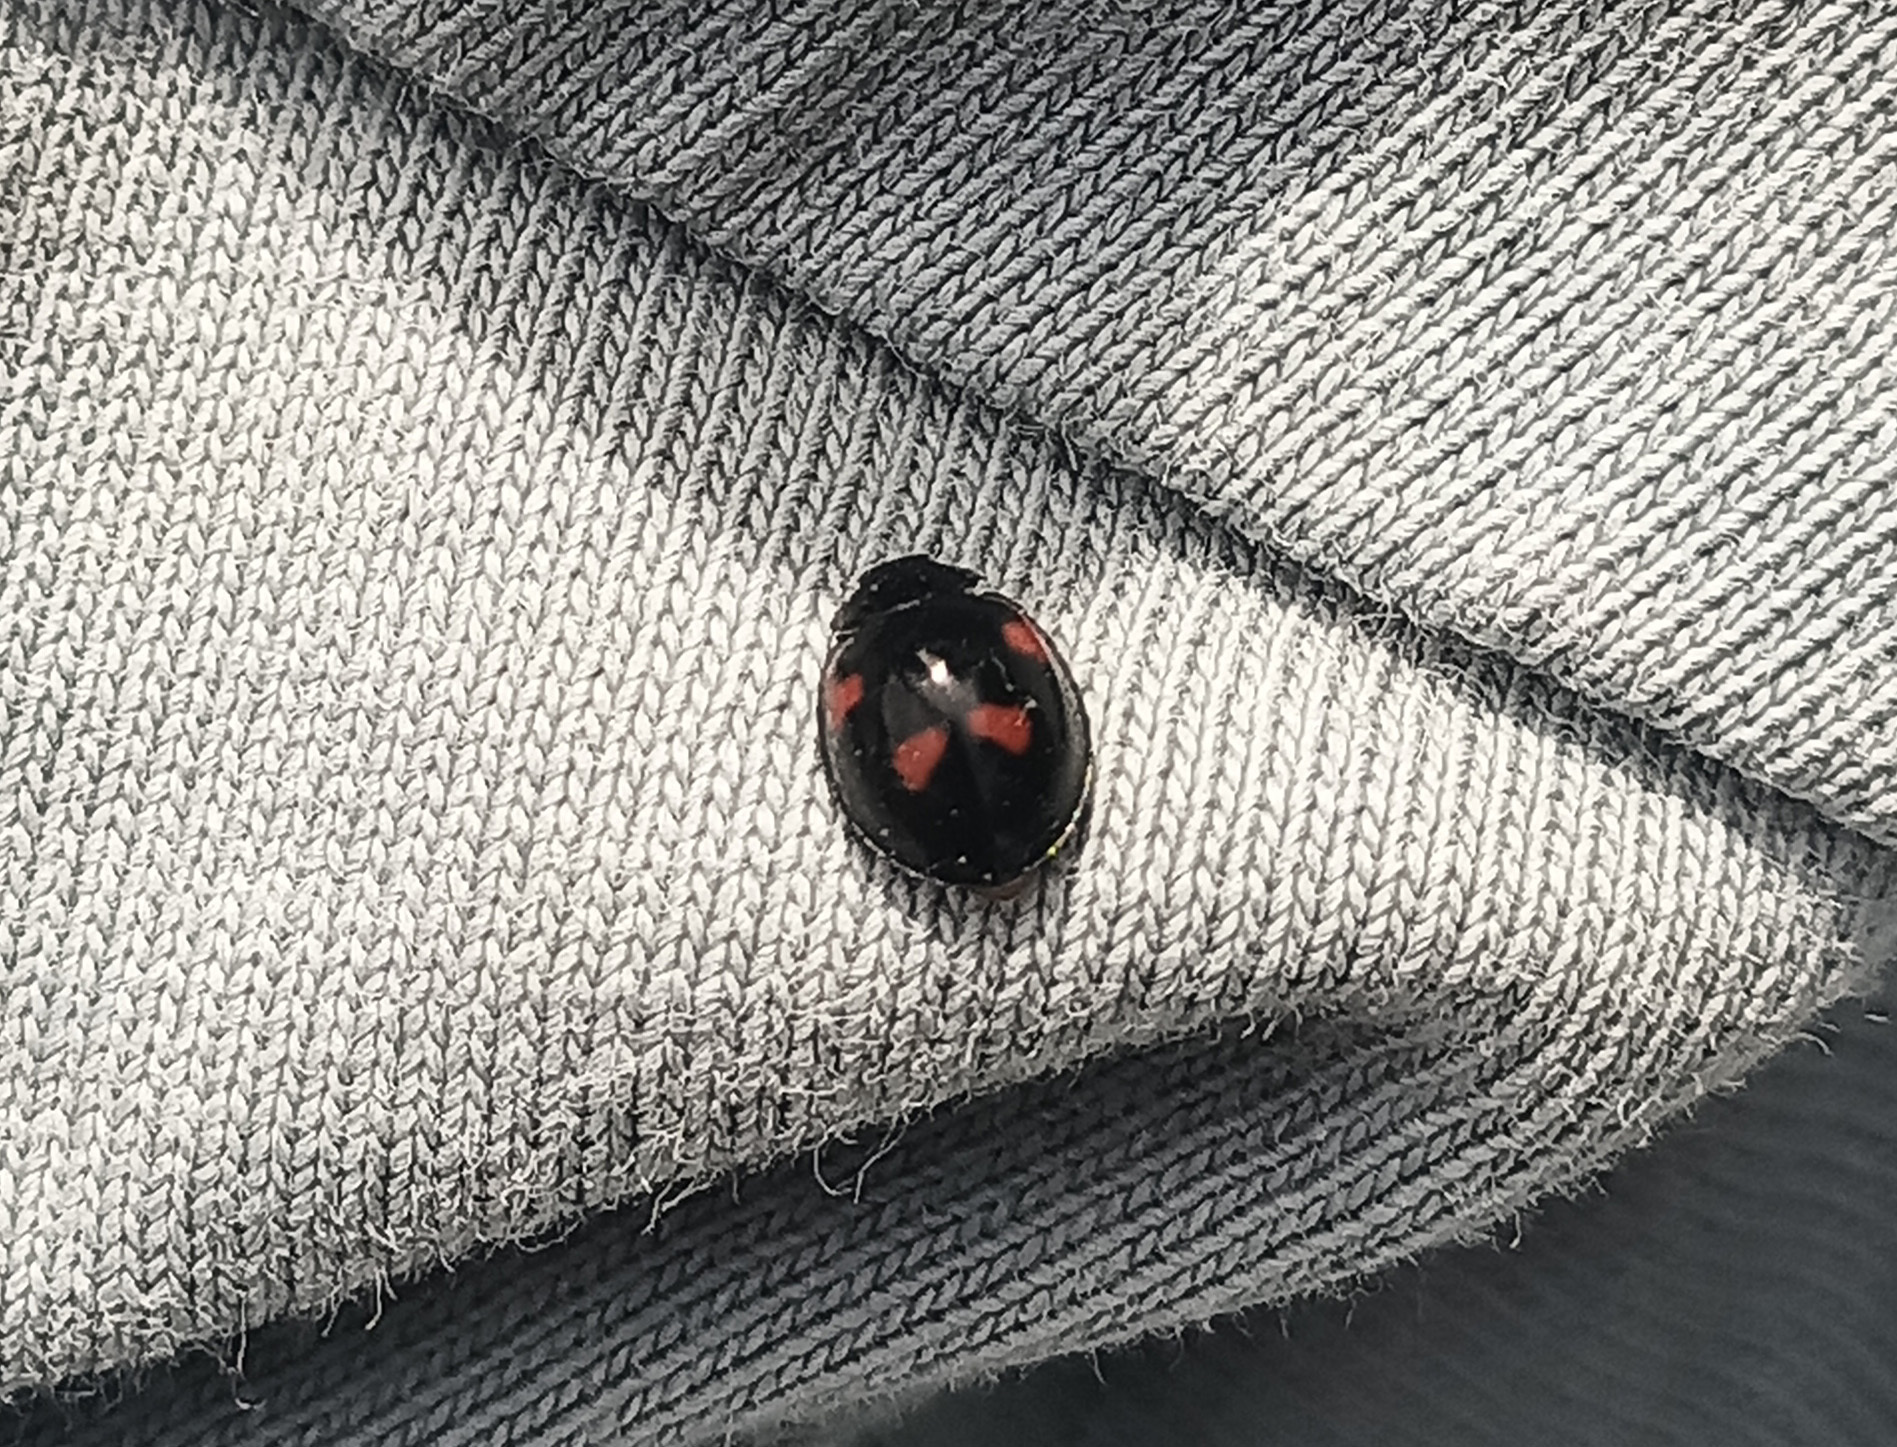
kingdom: Animalia
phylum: Arthropoda
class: Insecta
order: Coleoptera
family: Coccinellidae
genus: Brumus
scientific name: Brumus quadripustulatus
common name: Ladybird beetle
